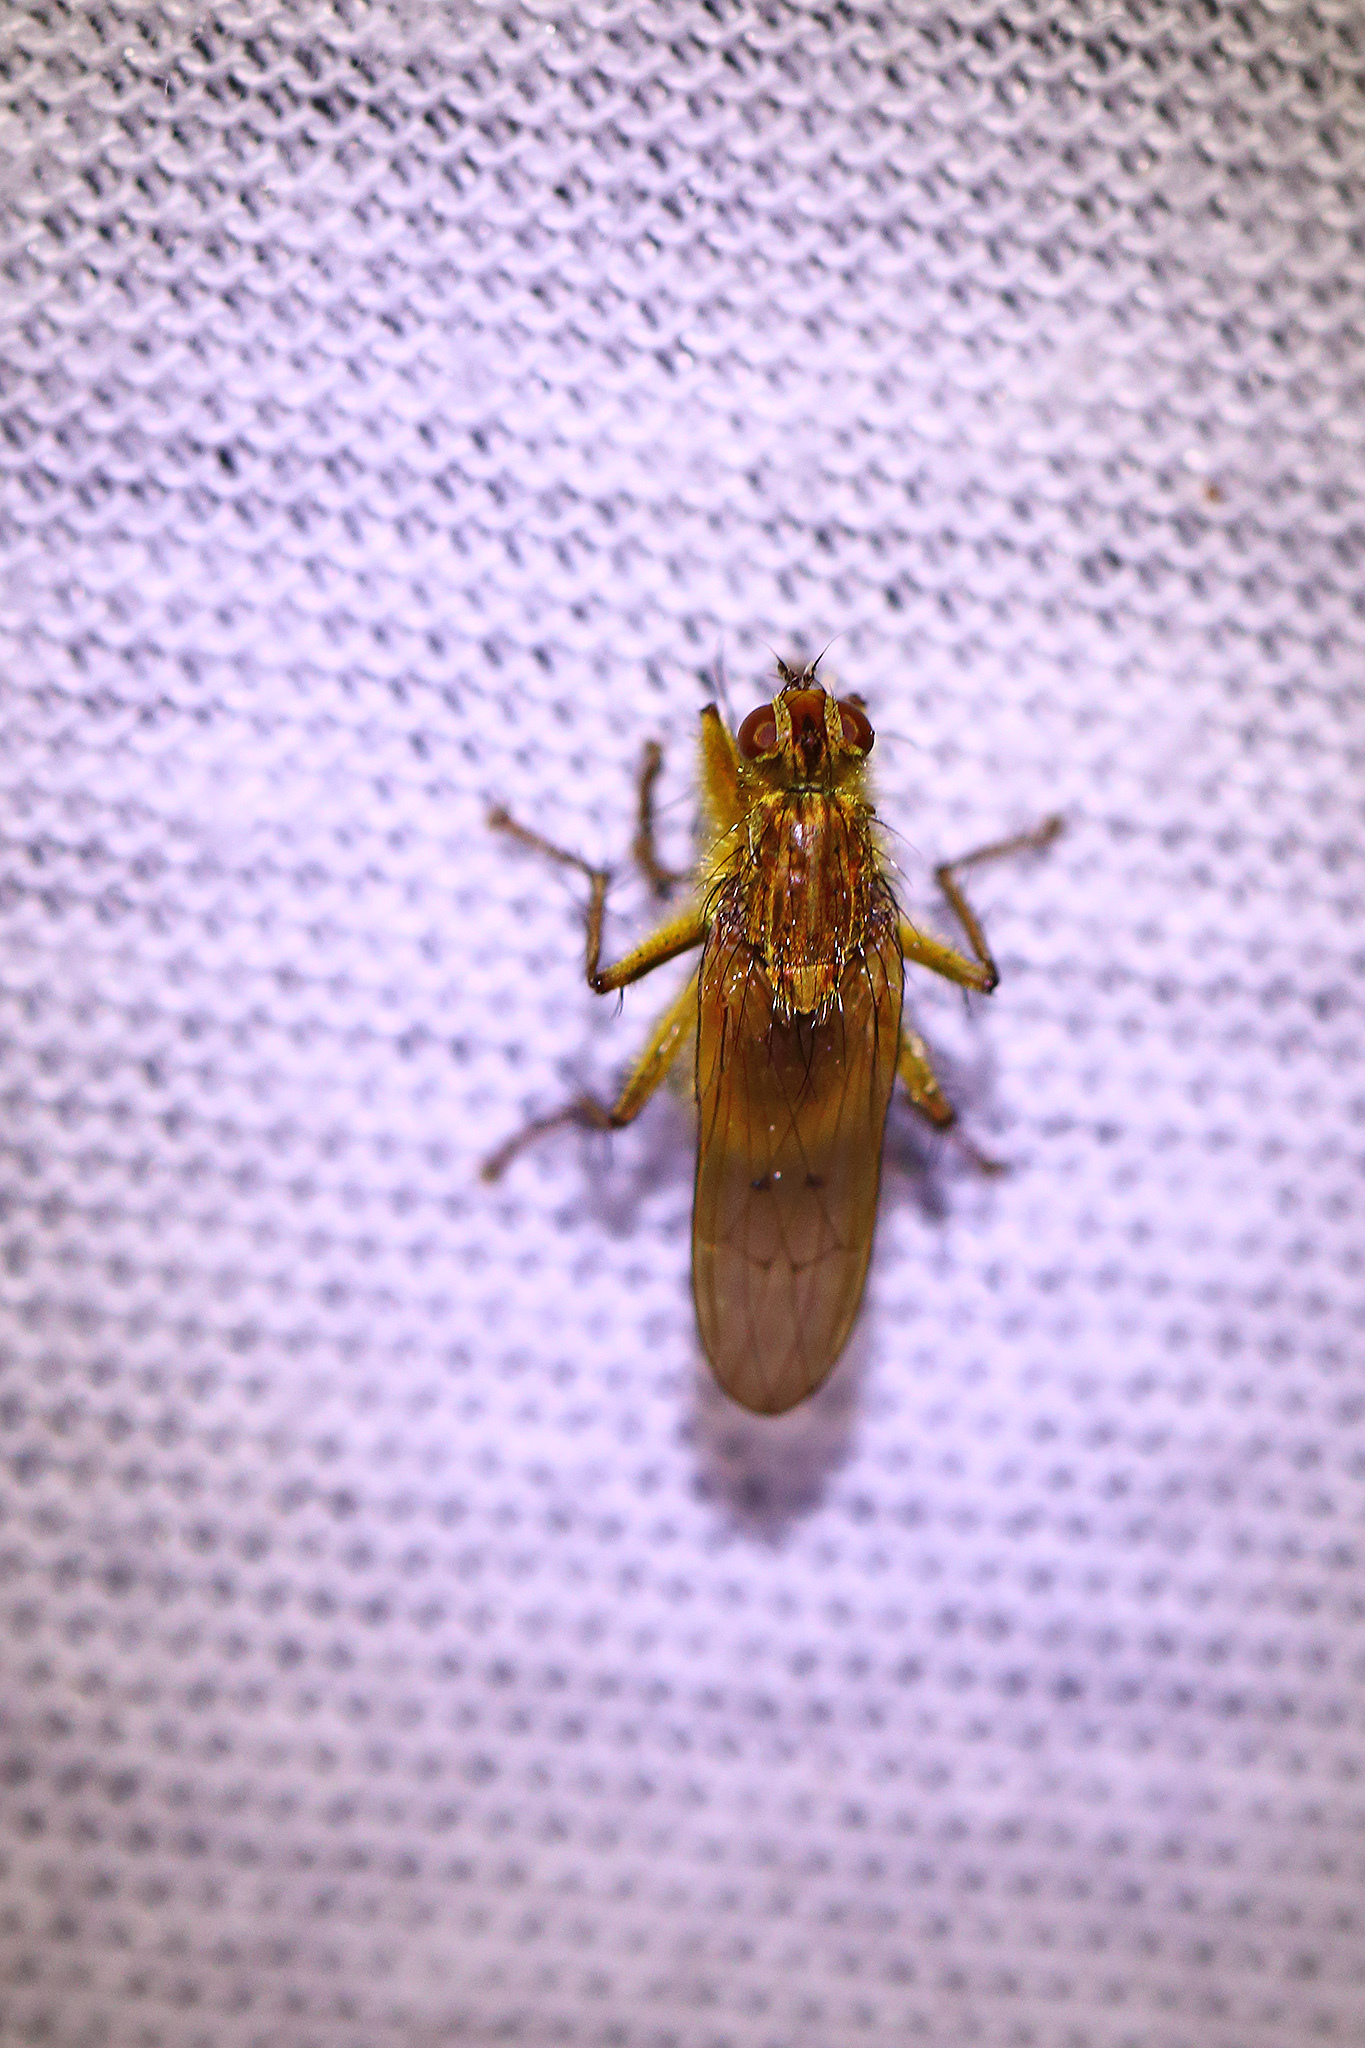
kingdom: Animalia
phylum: Arthropoda
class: Insecta
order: Diptera
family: Scathophagidae
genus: Scathophaga
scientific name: Scathophaga stercoraria
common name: Yellow dung fly
